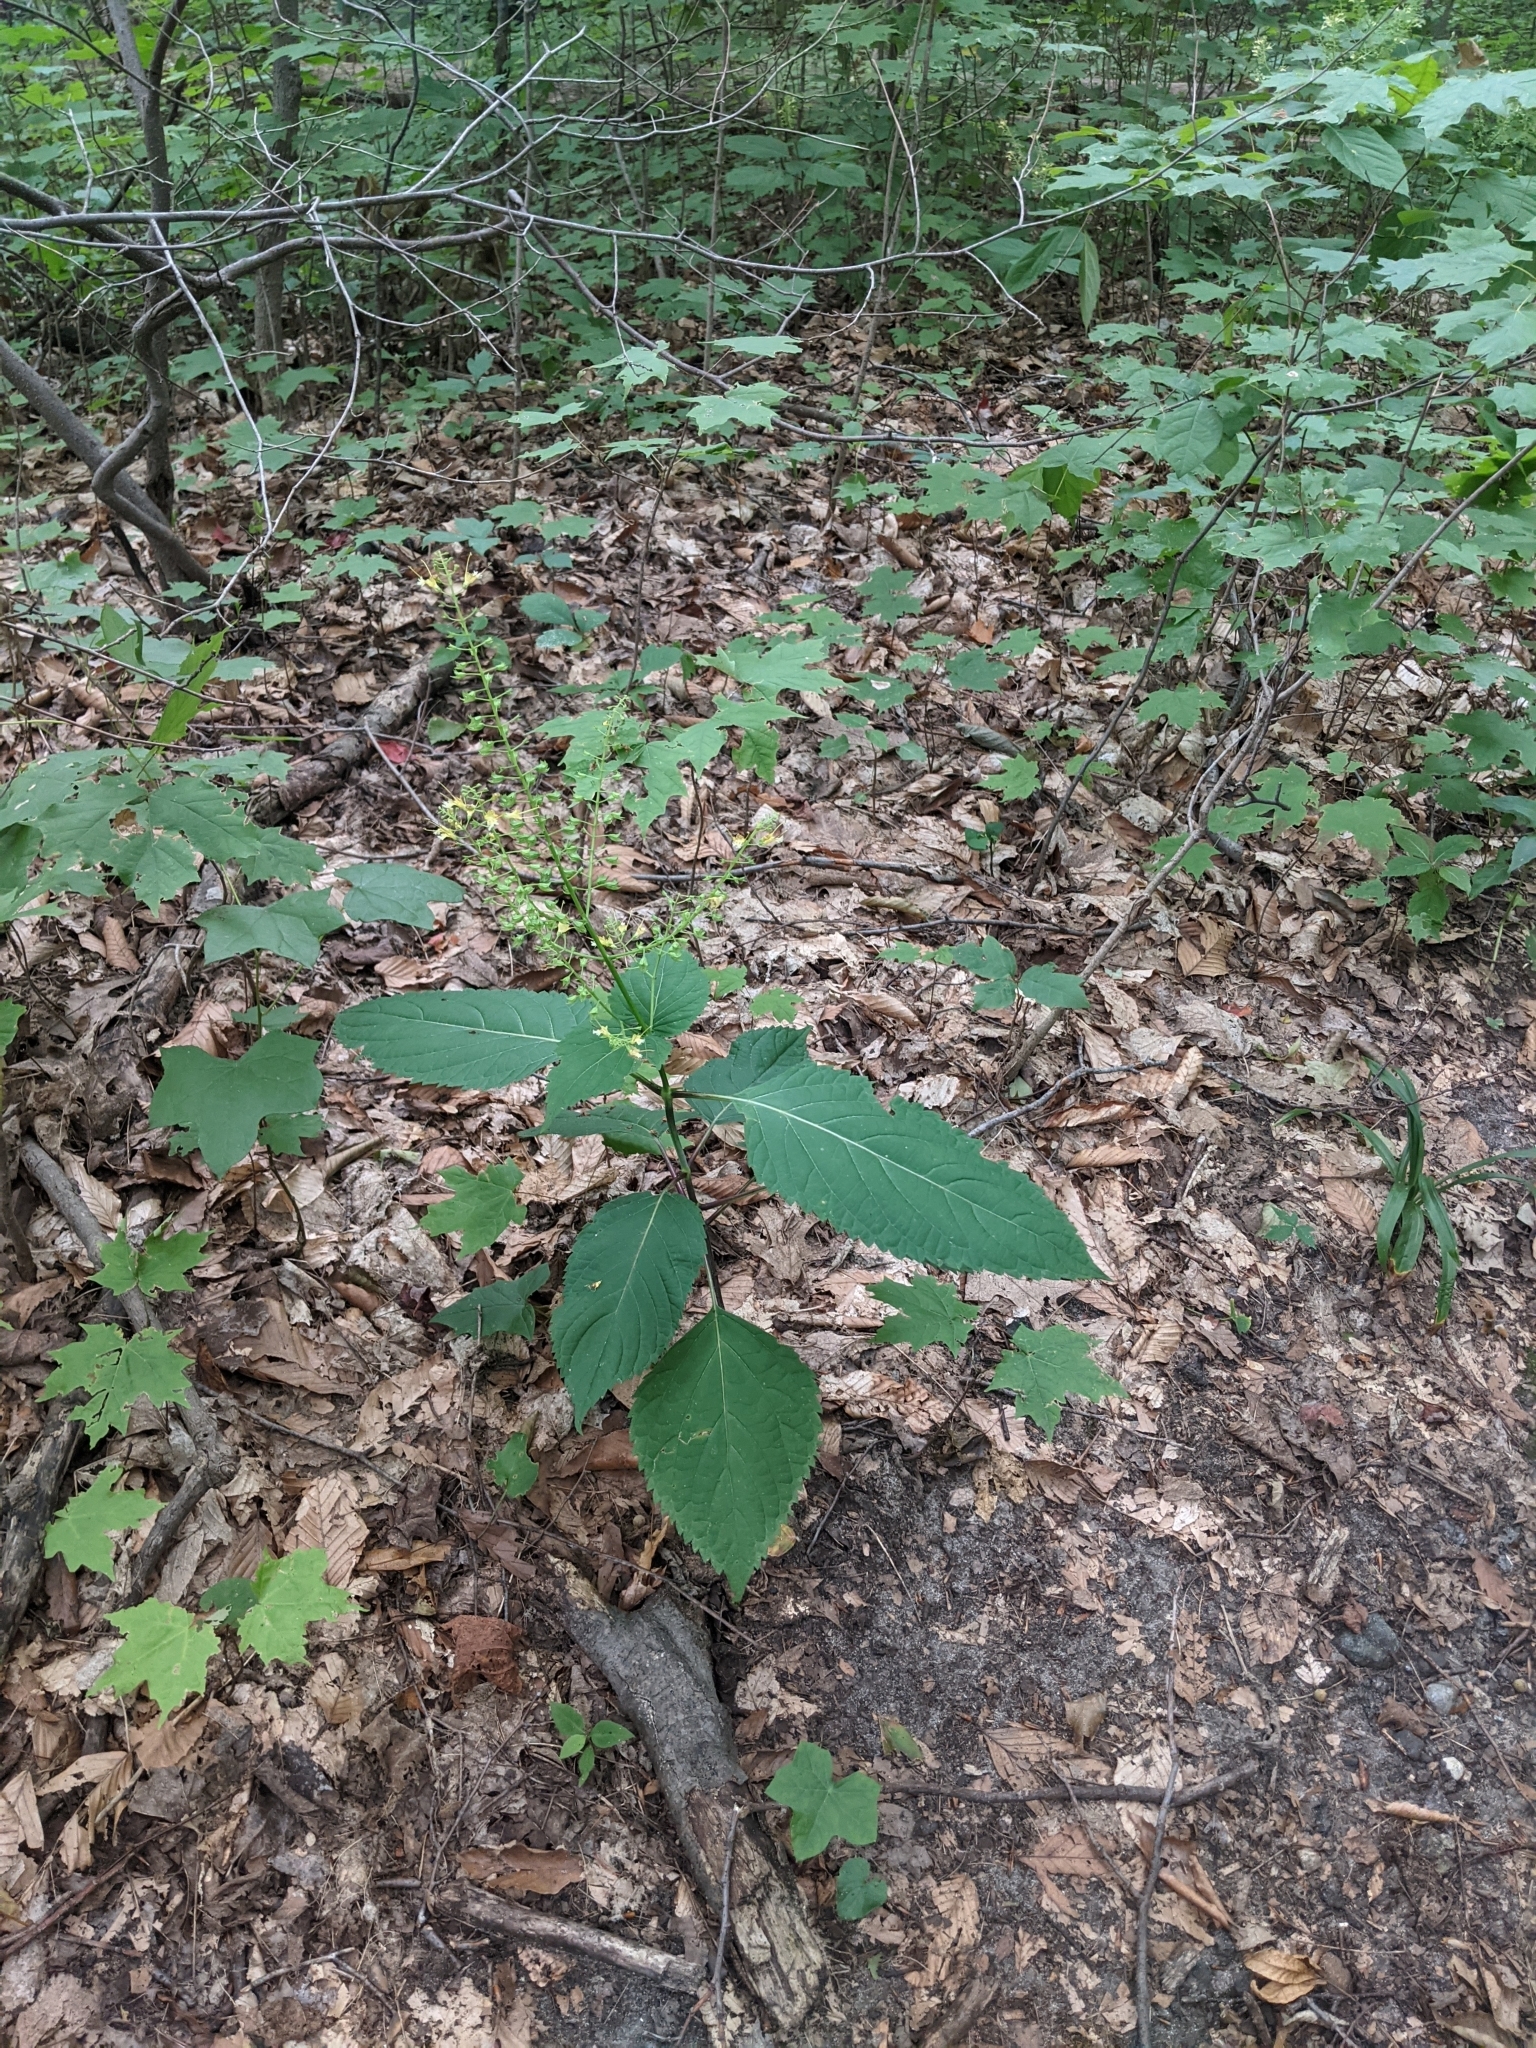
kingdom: Plantae
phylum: Tracheophyta
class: Magnoliopsida
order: Lamiales
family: Lamiaceae
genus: Collinsonia
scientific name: Collinsonia canadensis
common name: Northern horsebalm
